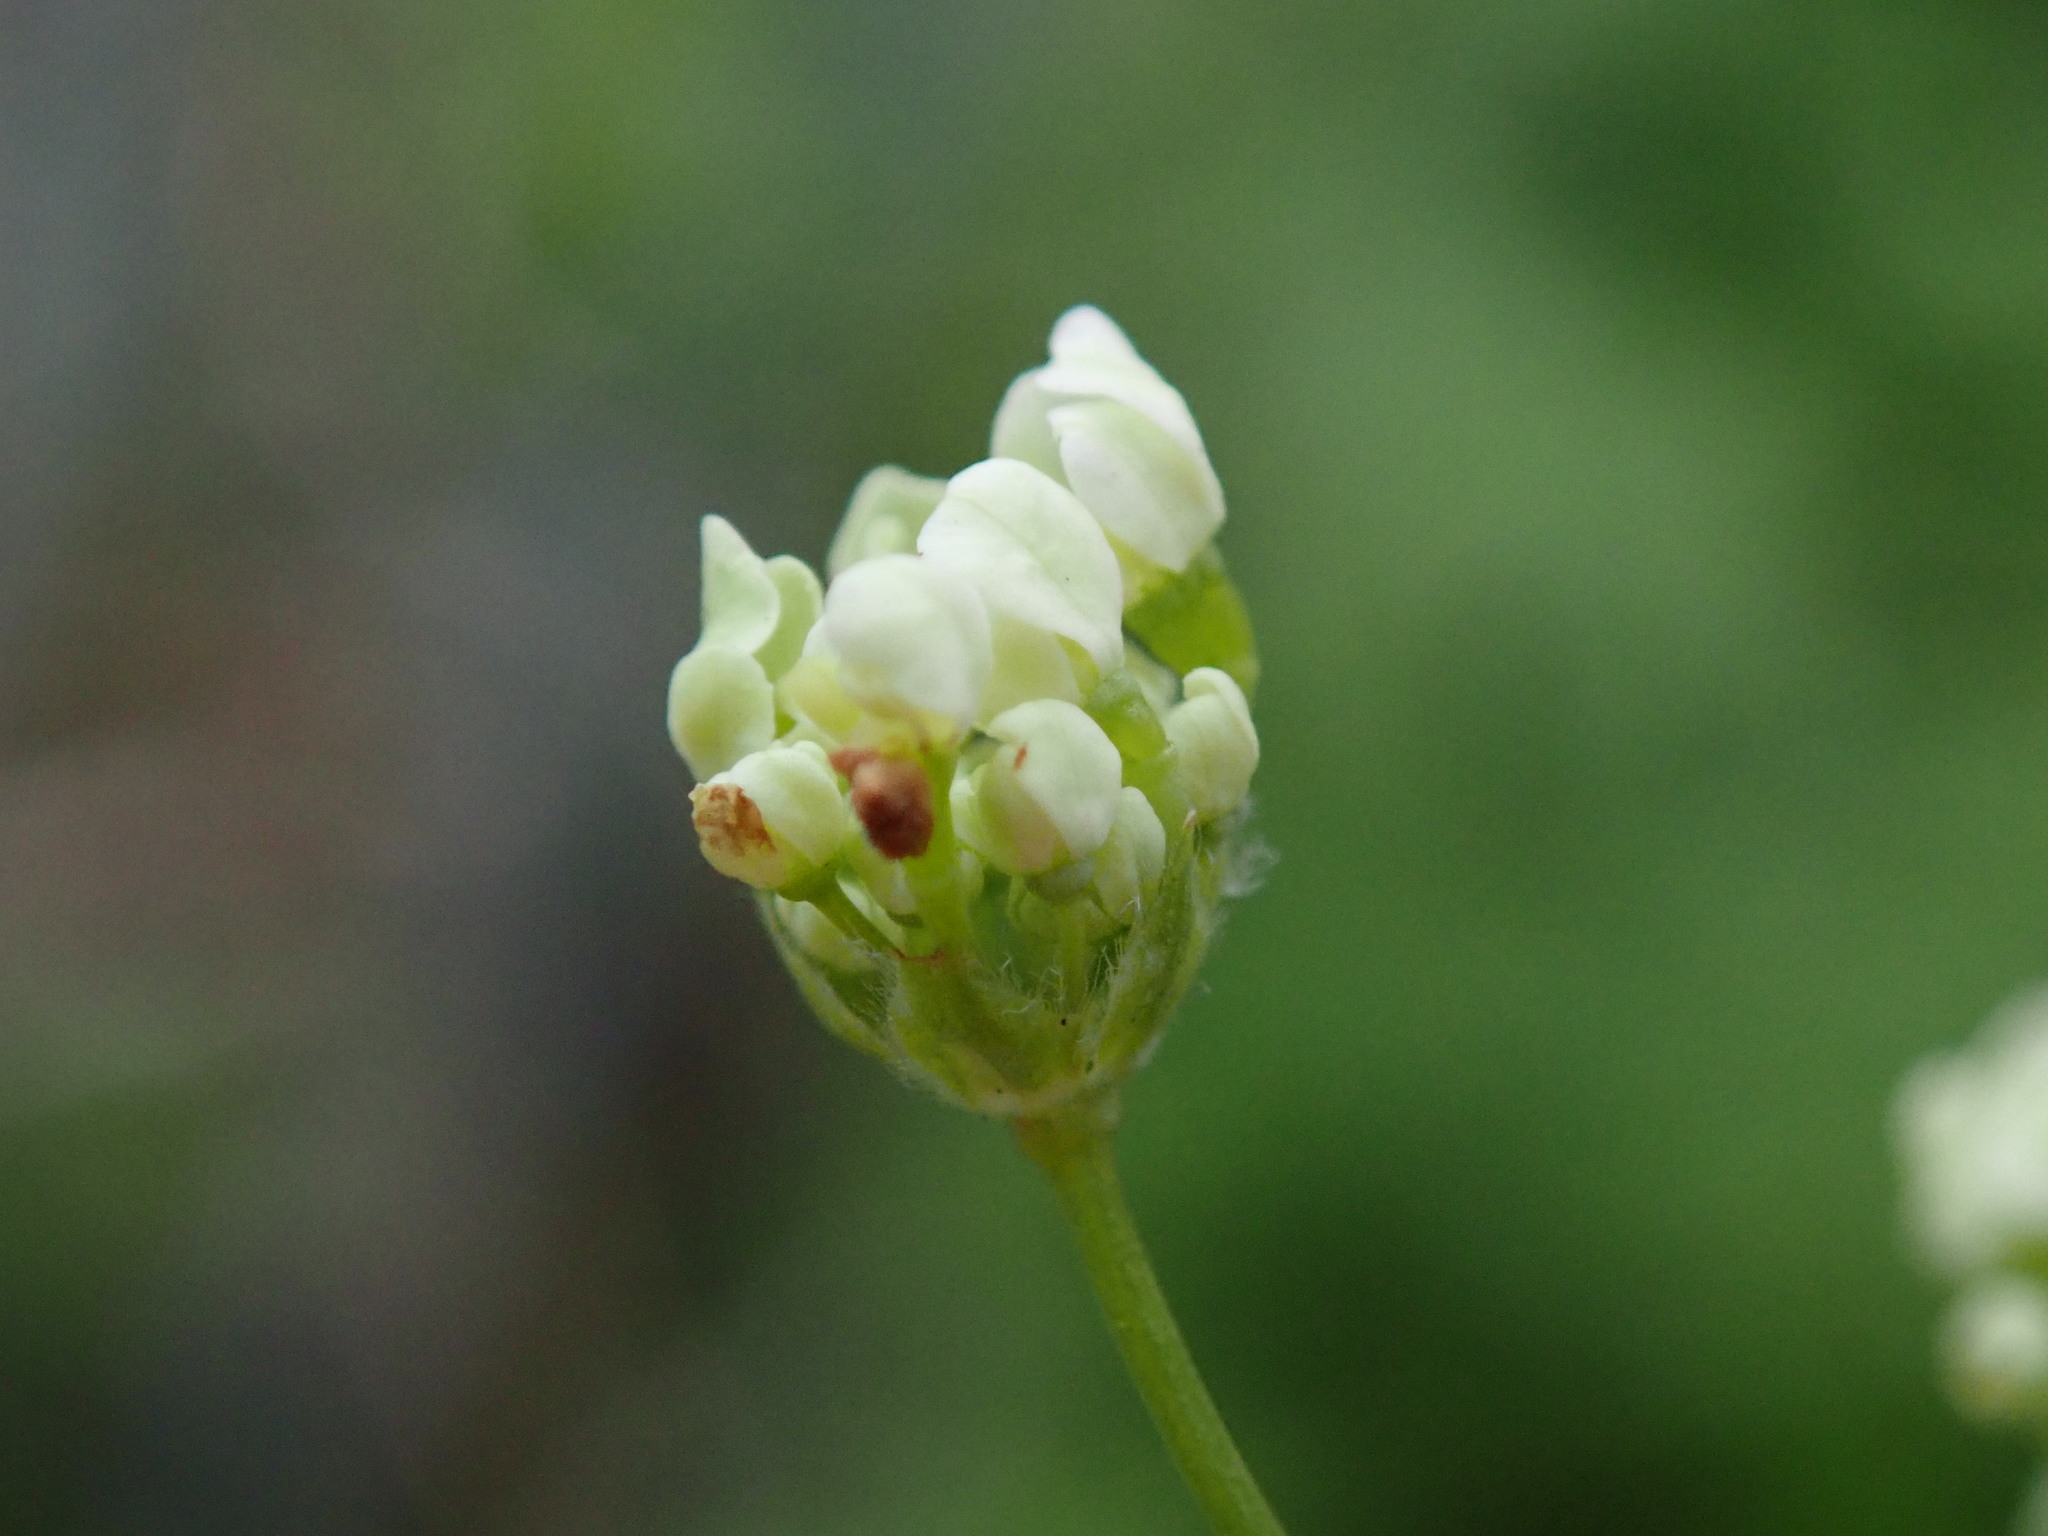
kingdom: Plantae
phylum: Tracheophyta
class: Magnoliopsida
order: Apiales
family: Apiaceae
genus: Anthriscus
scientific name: Anthriscus sylvestris
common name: Cow parsley
